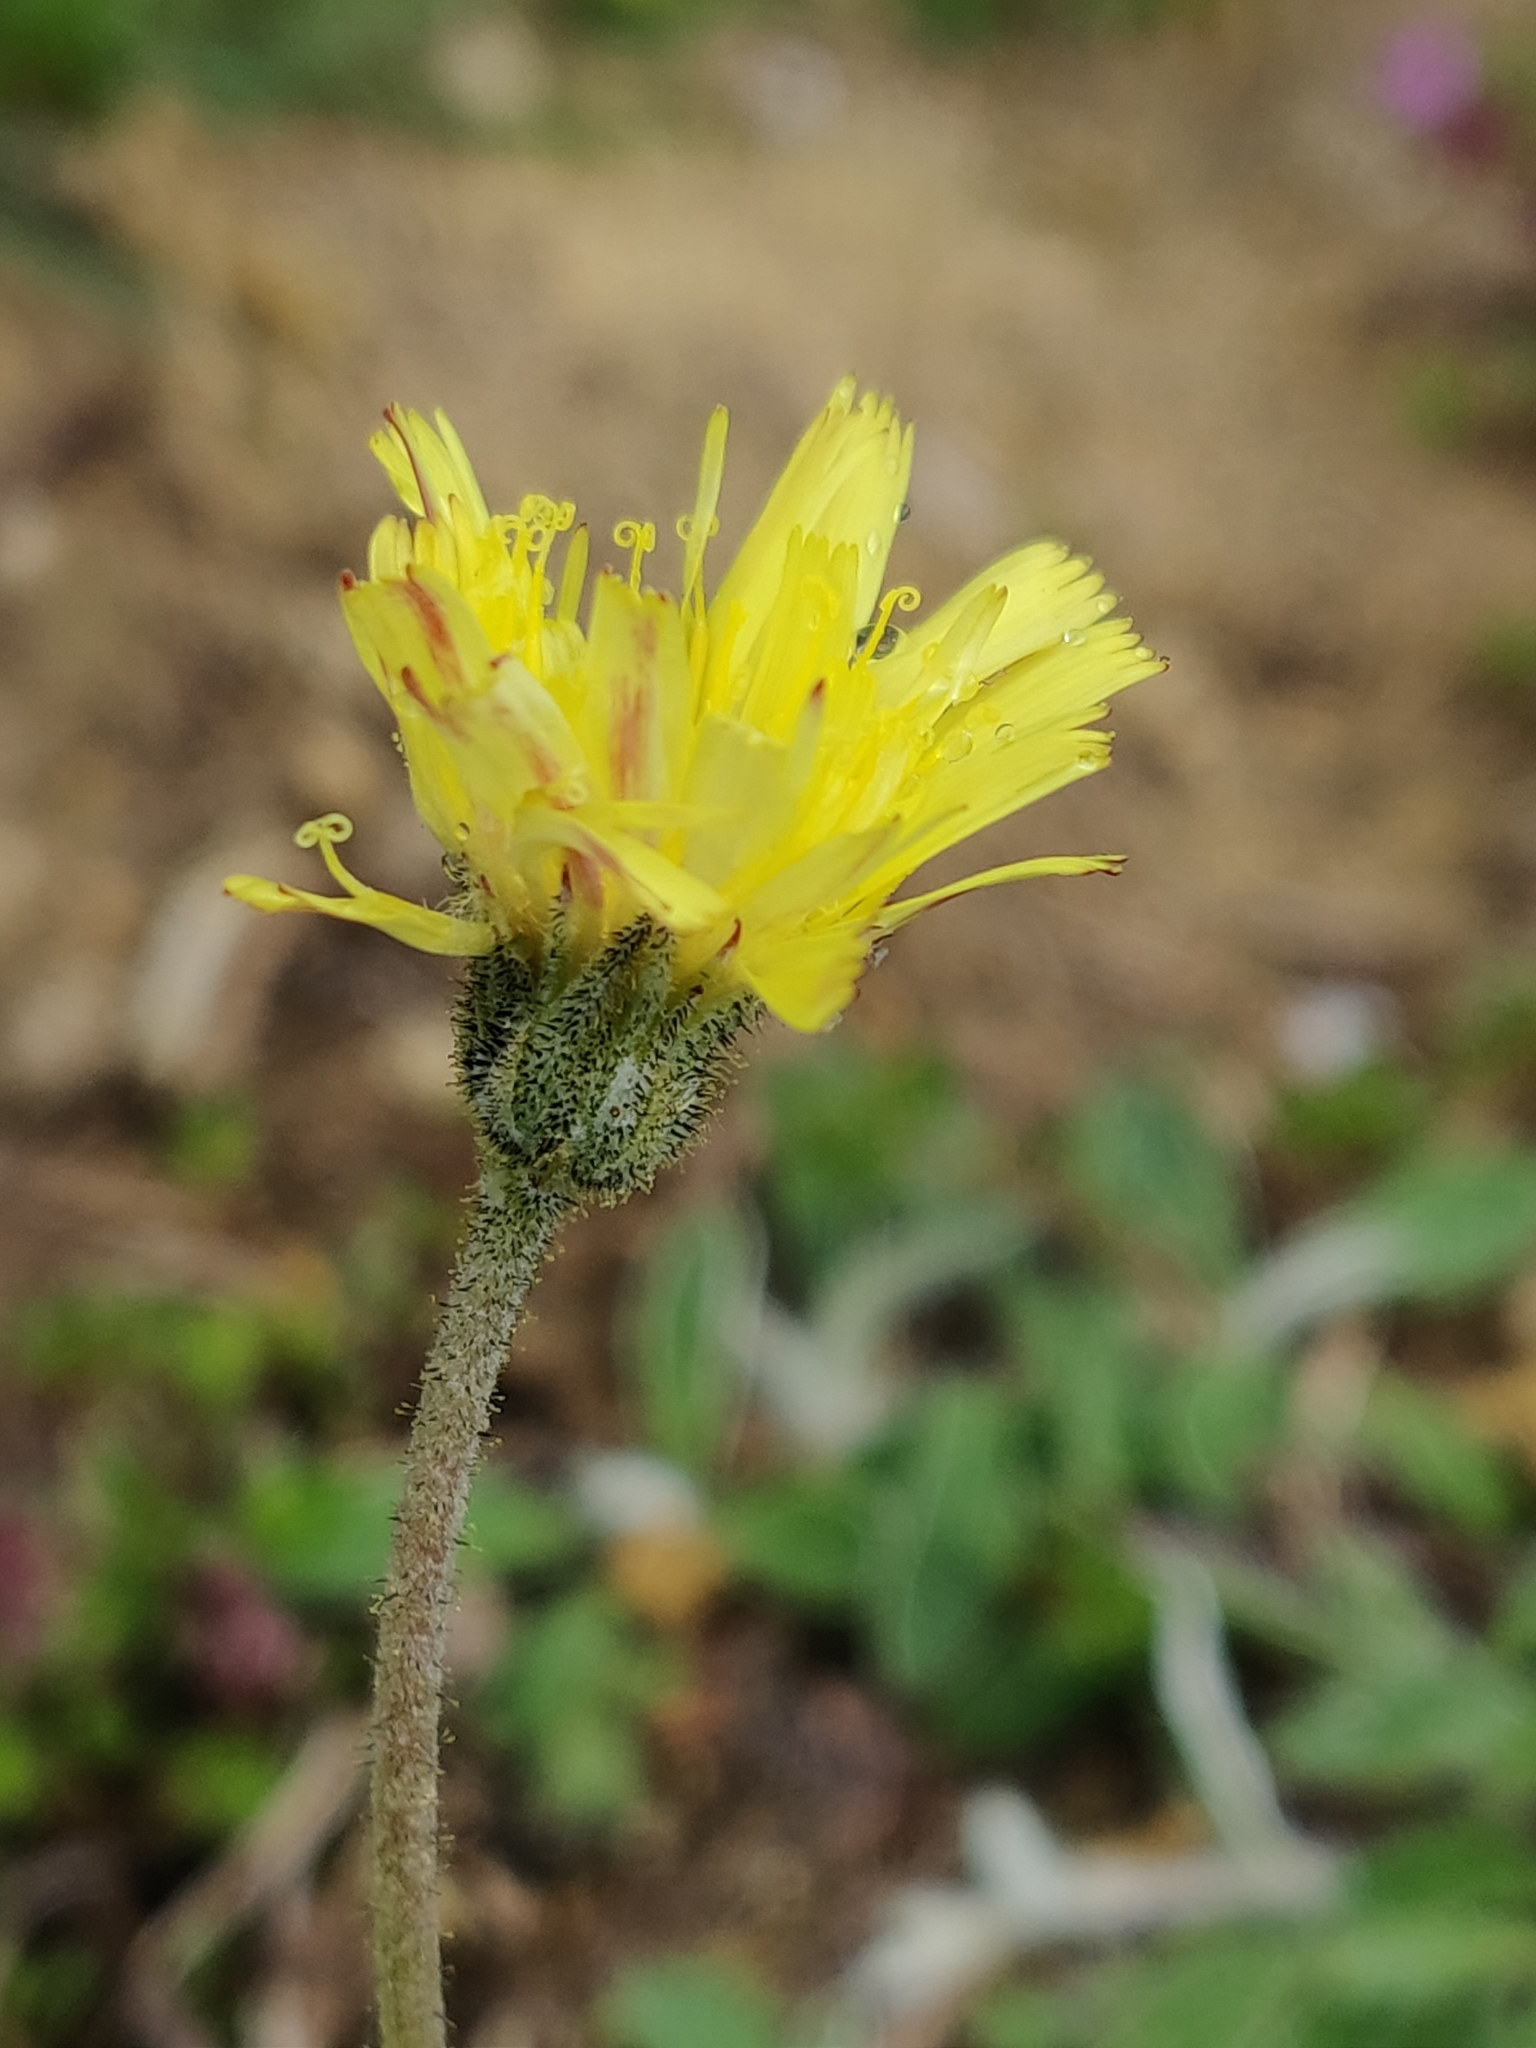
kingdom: Plantae
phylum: Tracheophyta
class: Magnoliopsida
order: Asterales
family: Asteraceae
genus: Pilosella
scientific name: Pilosella officinarum
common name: Mouse-ear hawkweed
